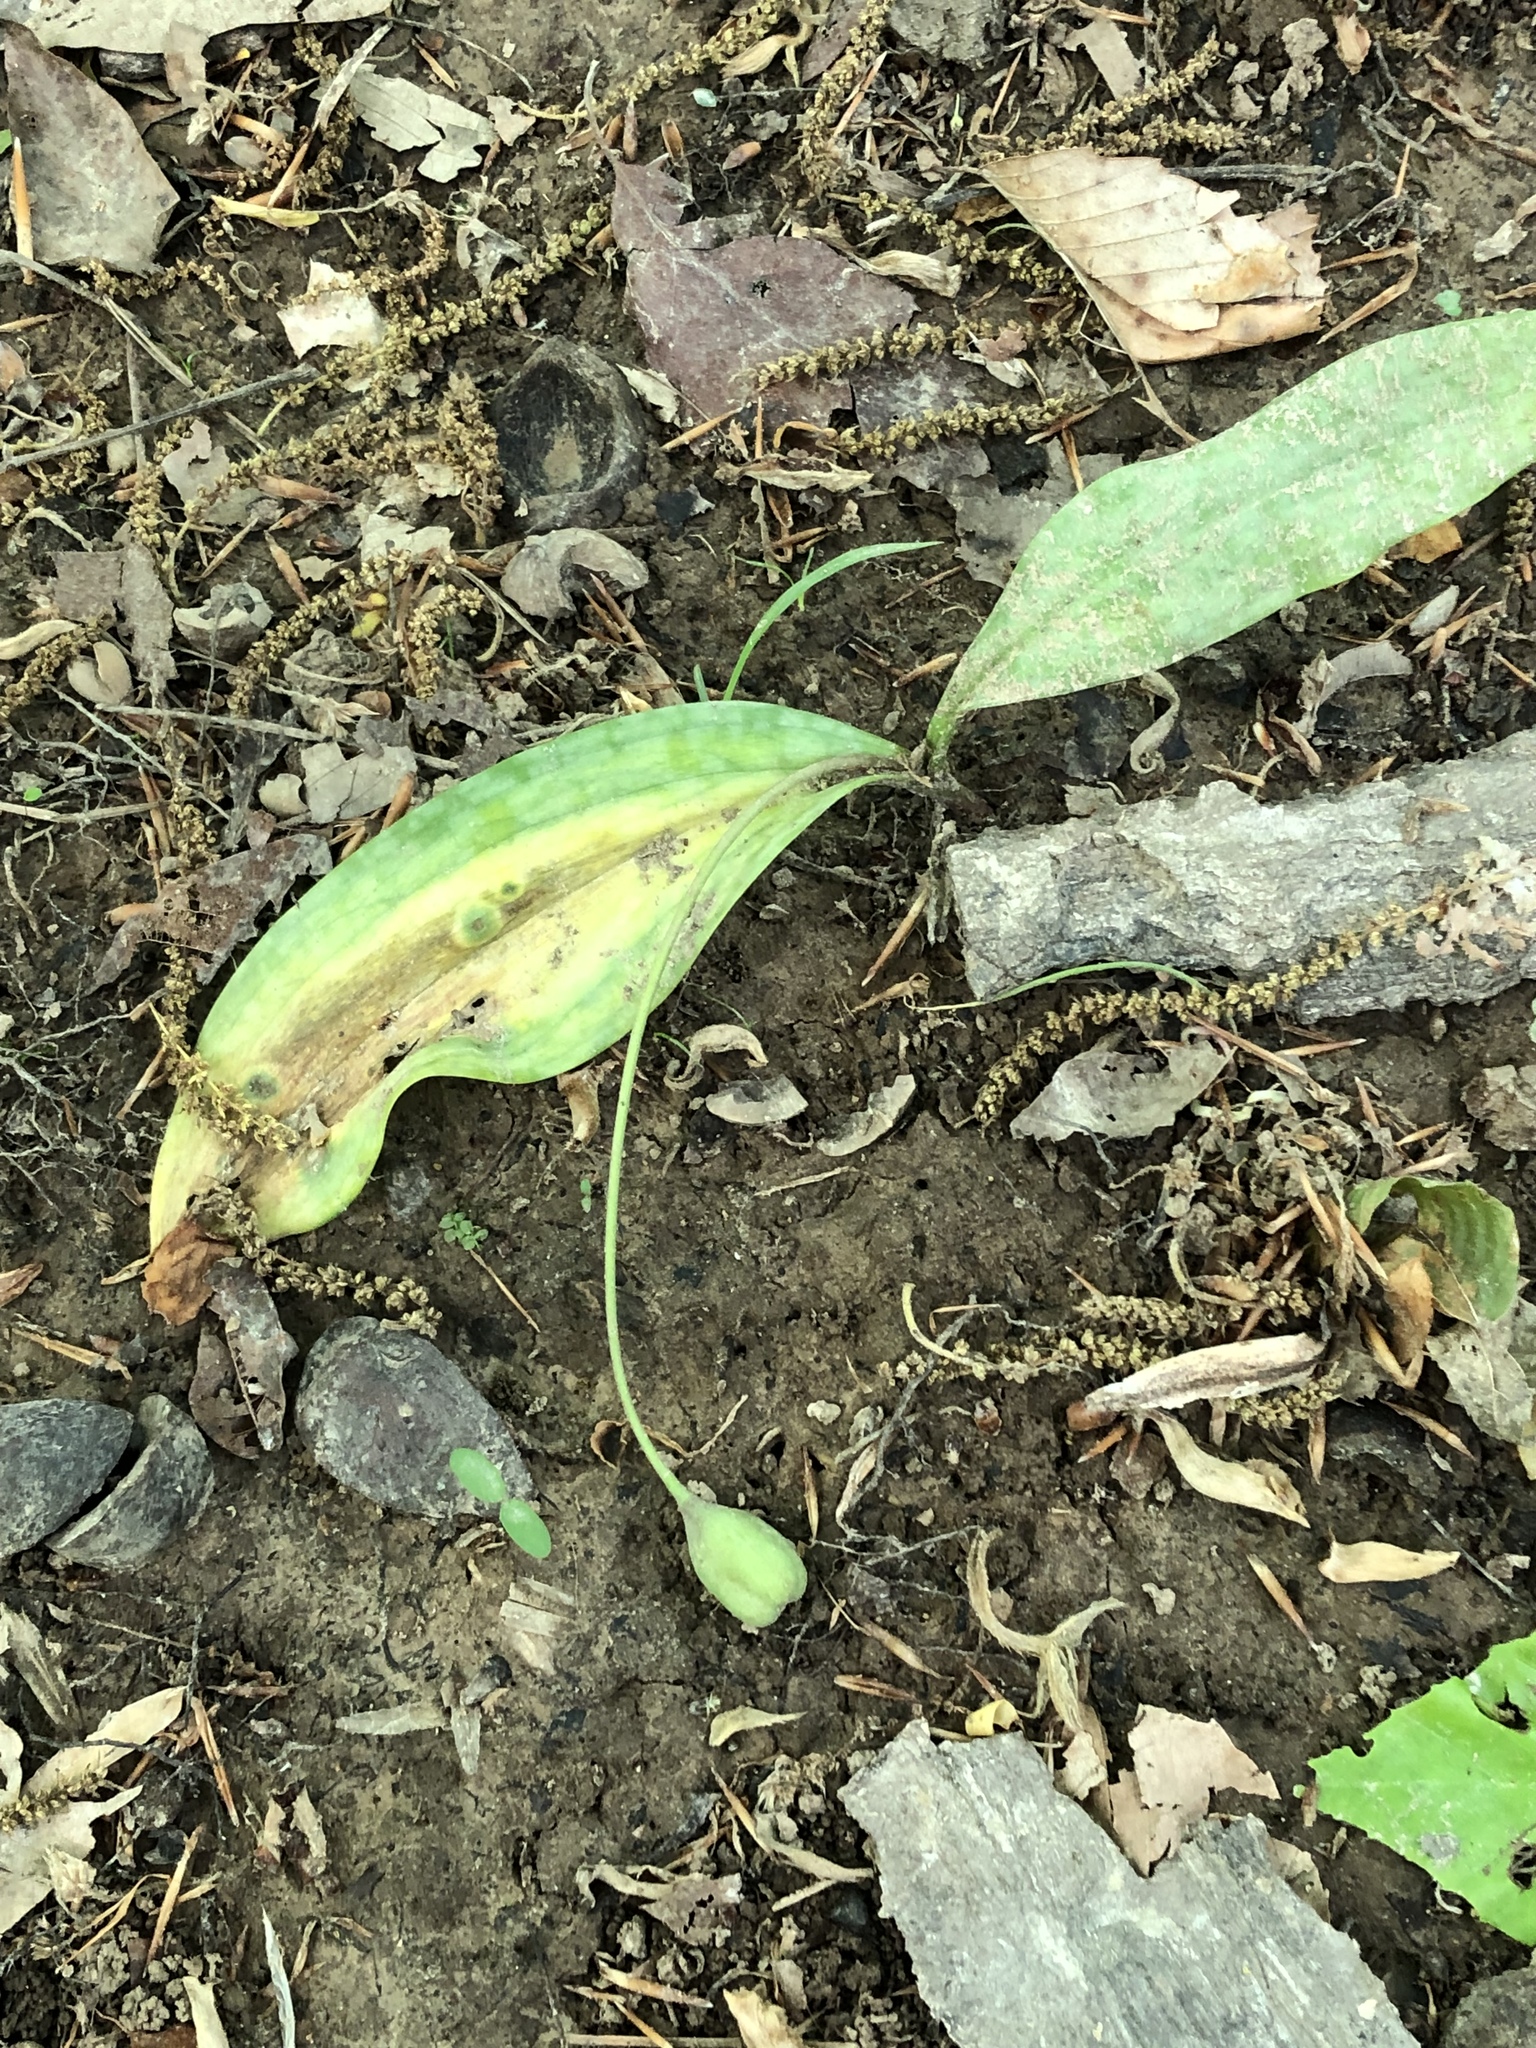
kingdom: Plantae
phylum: Tracheophyta
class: Liliopsida
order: Liliales
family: Liliaceae
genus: Erythronium
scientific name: Erythronium umbilicatum
